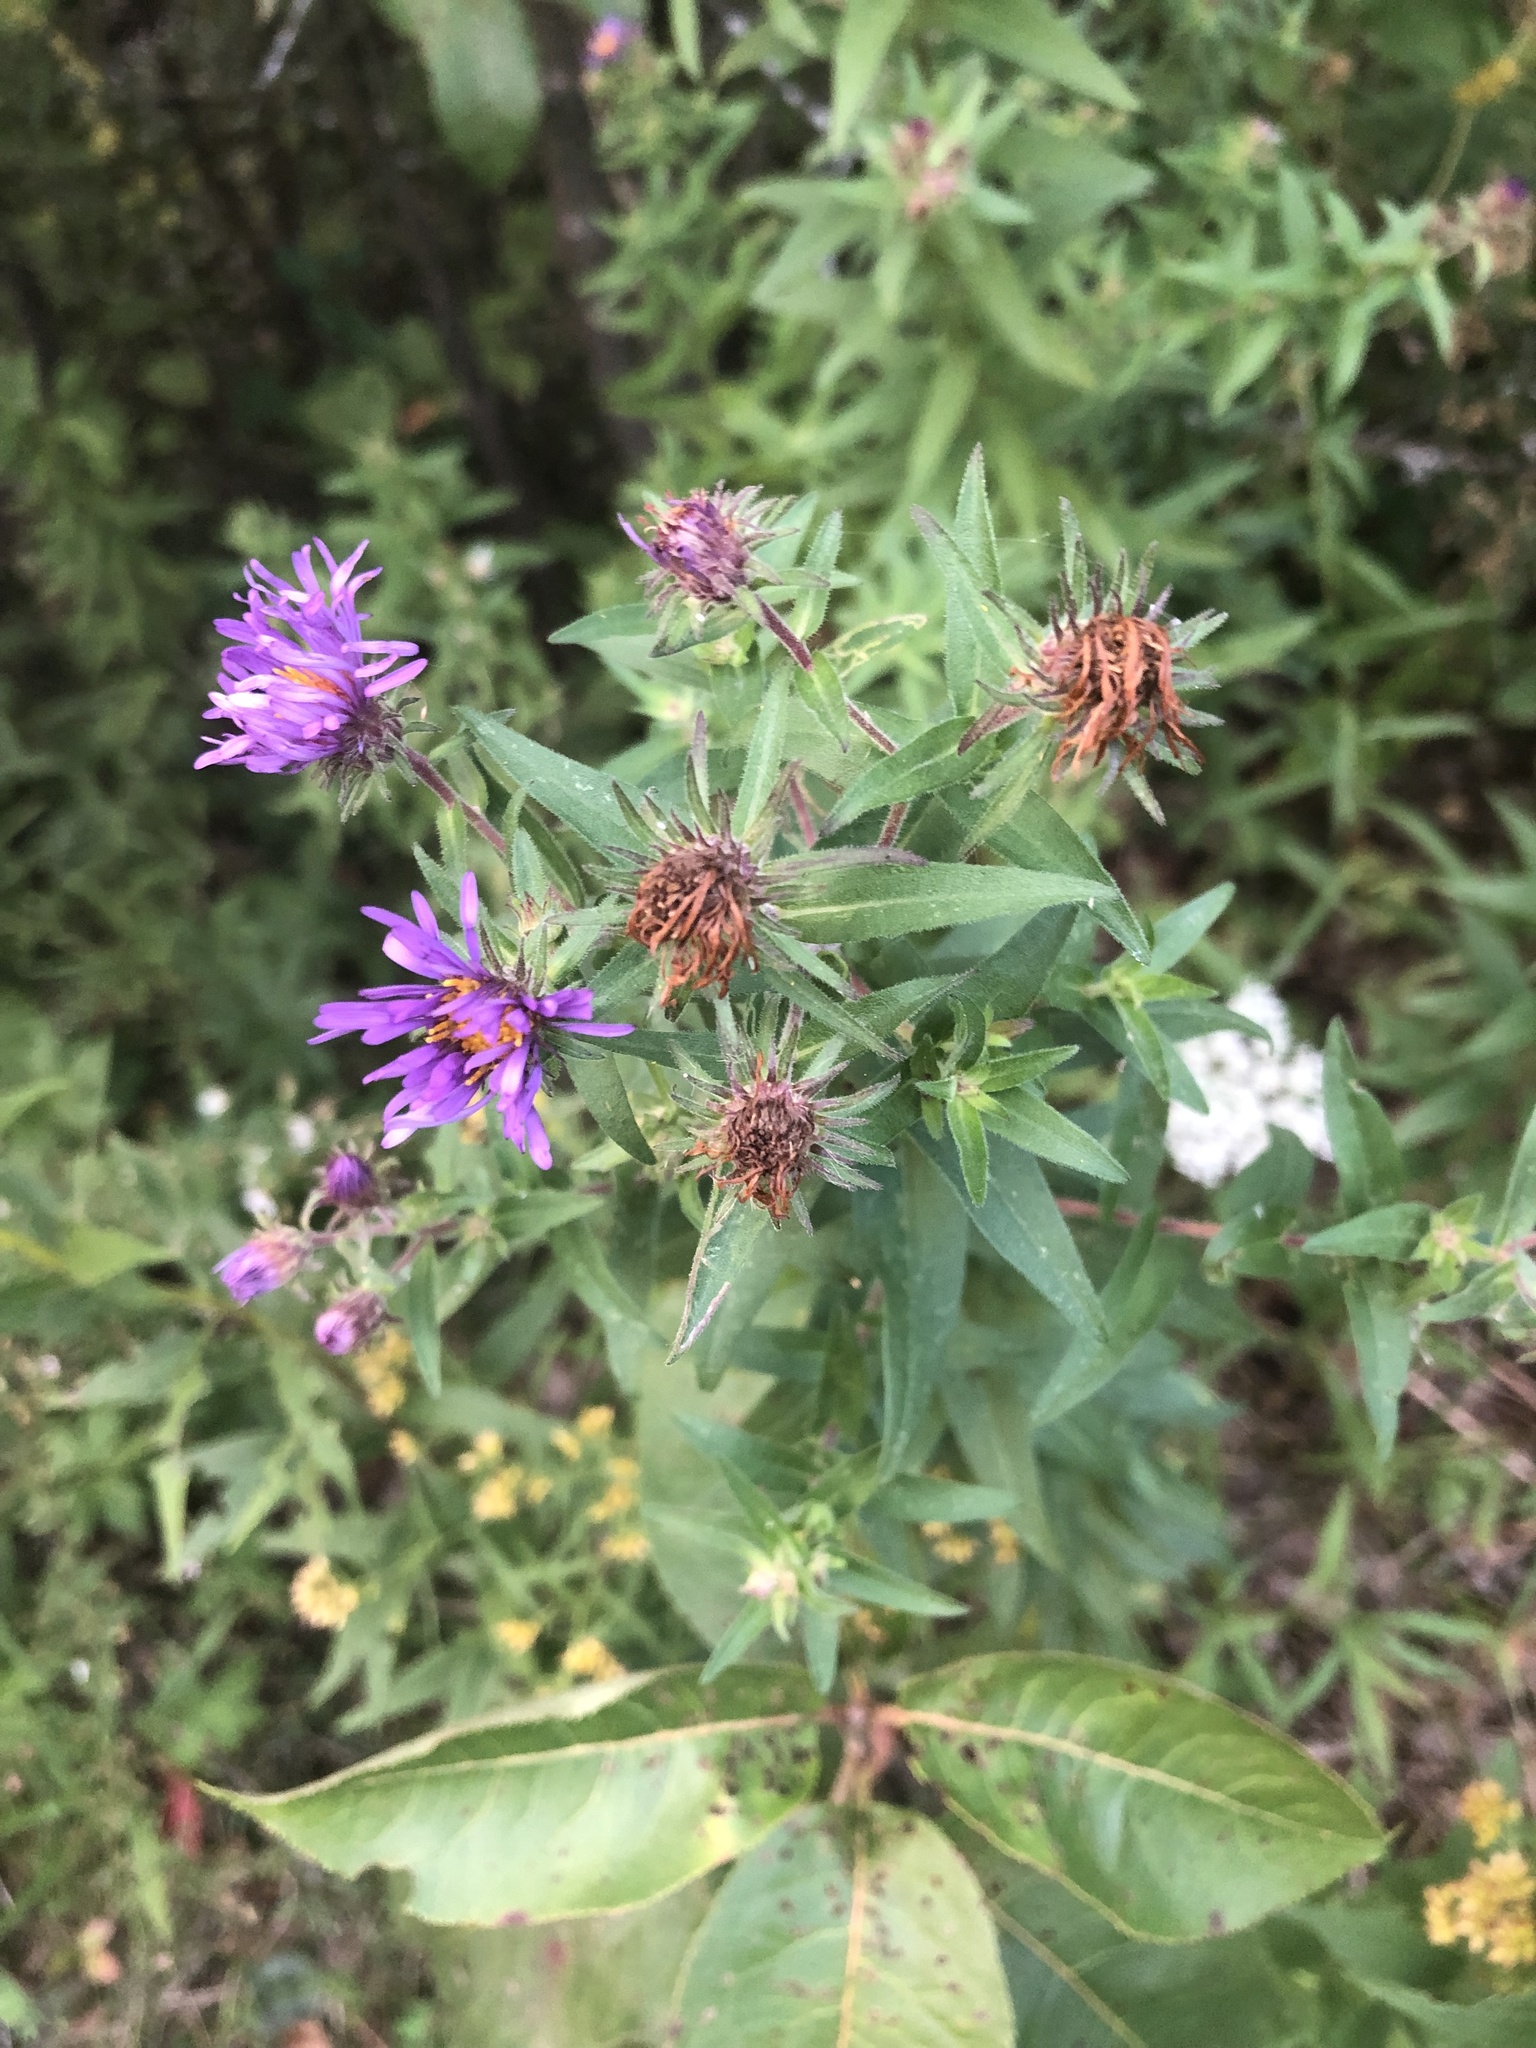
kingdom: Plantae
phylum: Tracheophyta
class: Magnoliopsida
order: Asterales
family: Asteraceae
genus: Symphyotrichum
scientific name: Symphyotrichum novae-angliae
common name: Michaelmas daisy
